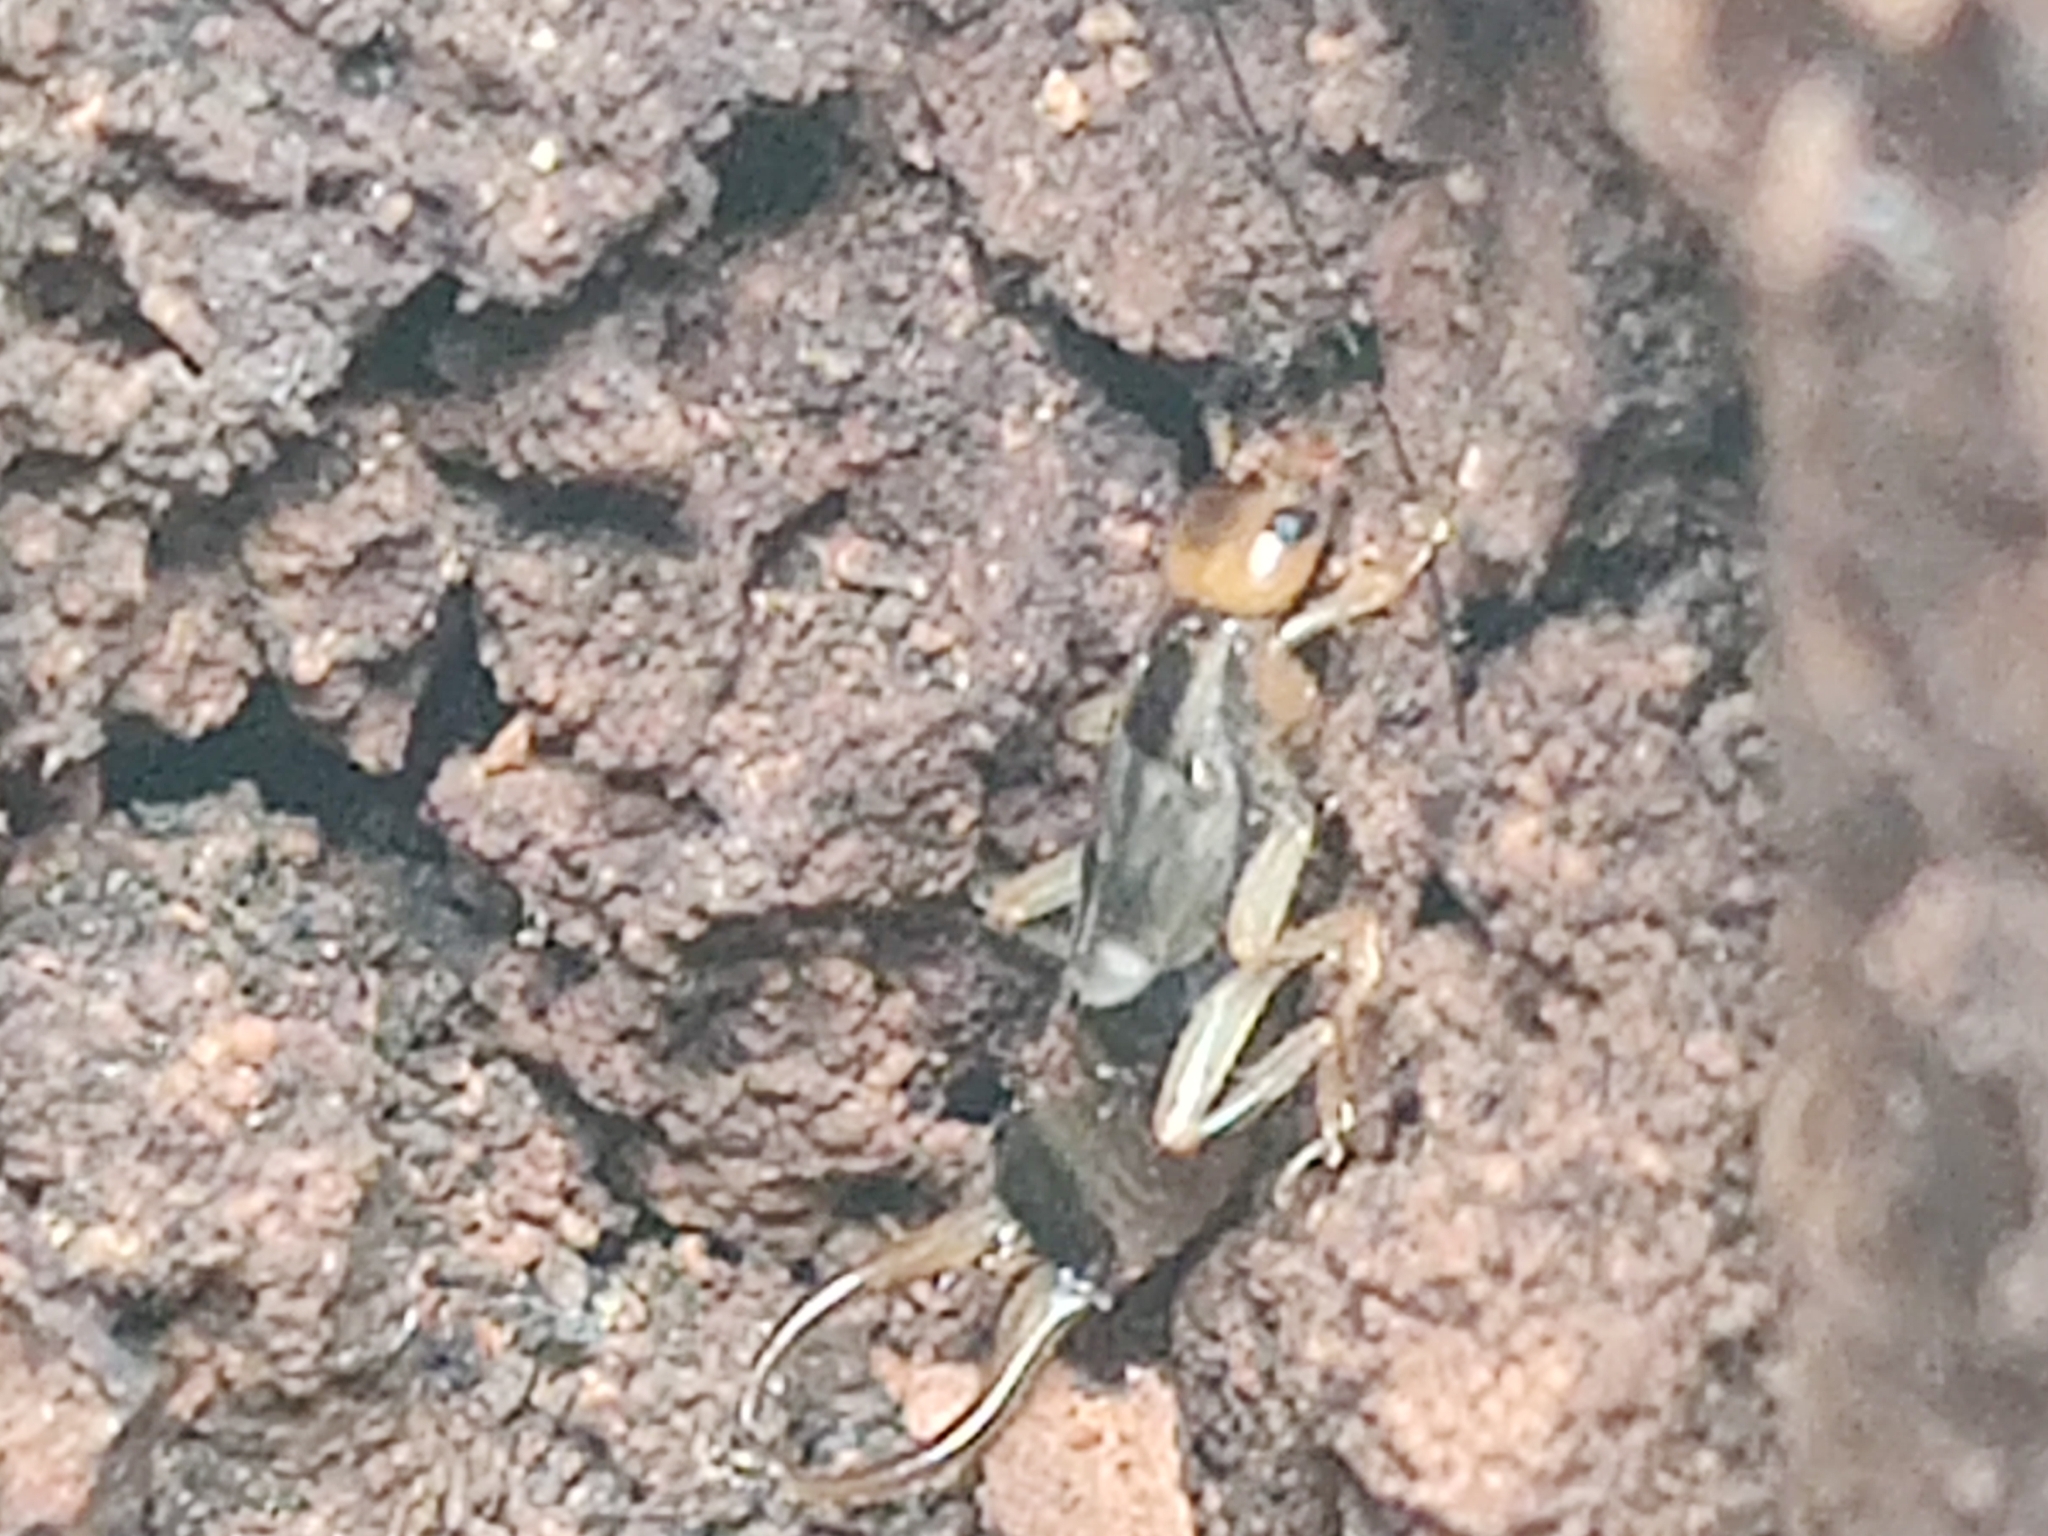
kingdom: Animalia
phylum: Arthropoda
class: Insecta
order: Dermaptera
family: Forficulidae
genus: Forficula
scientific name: Forficula
